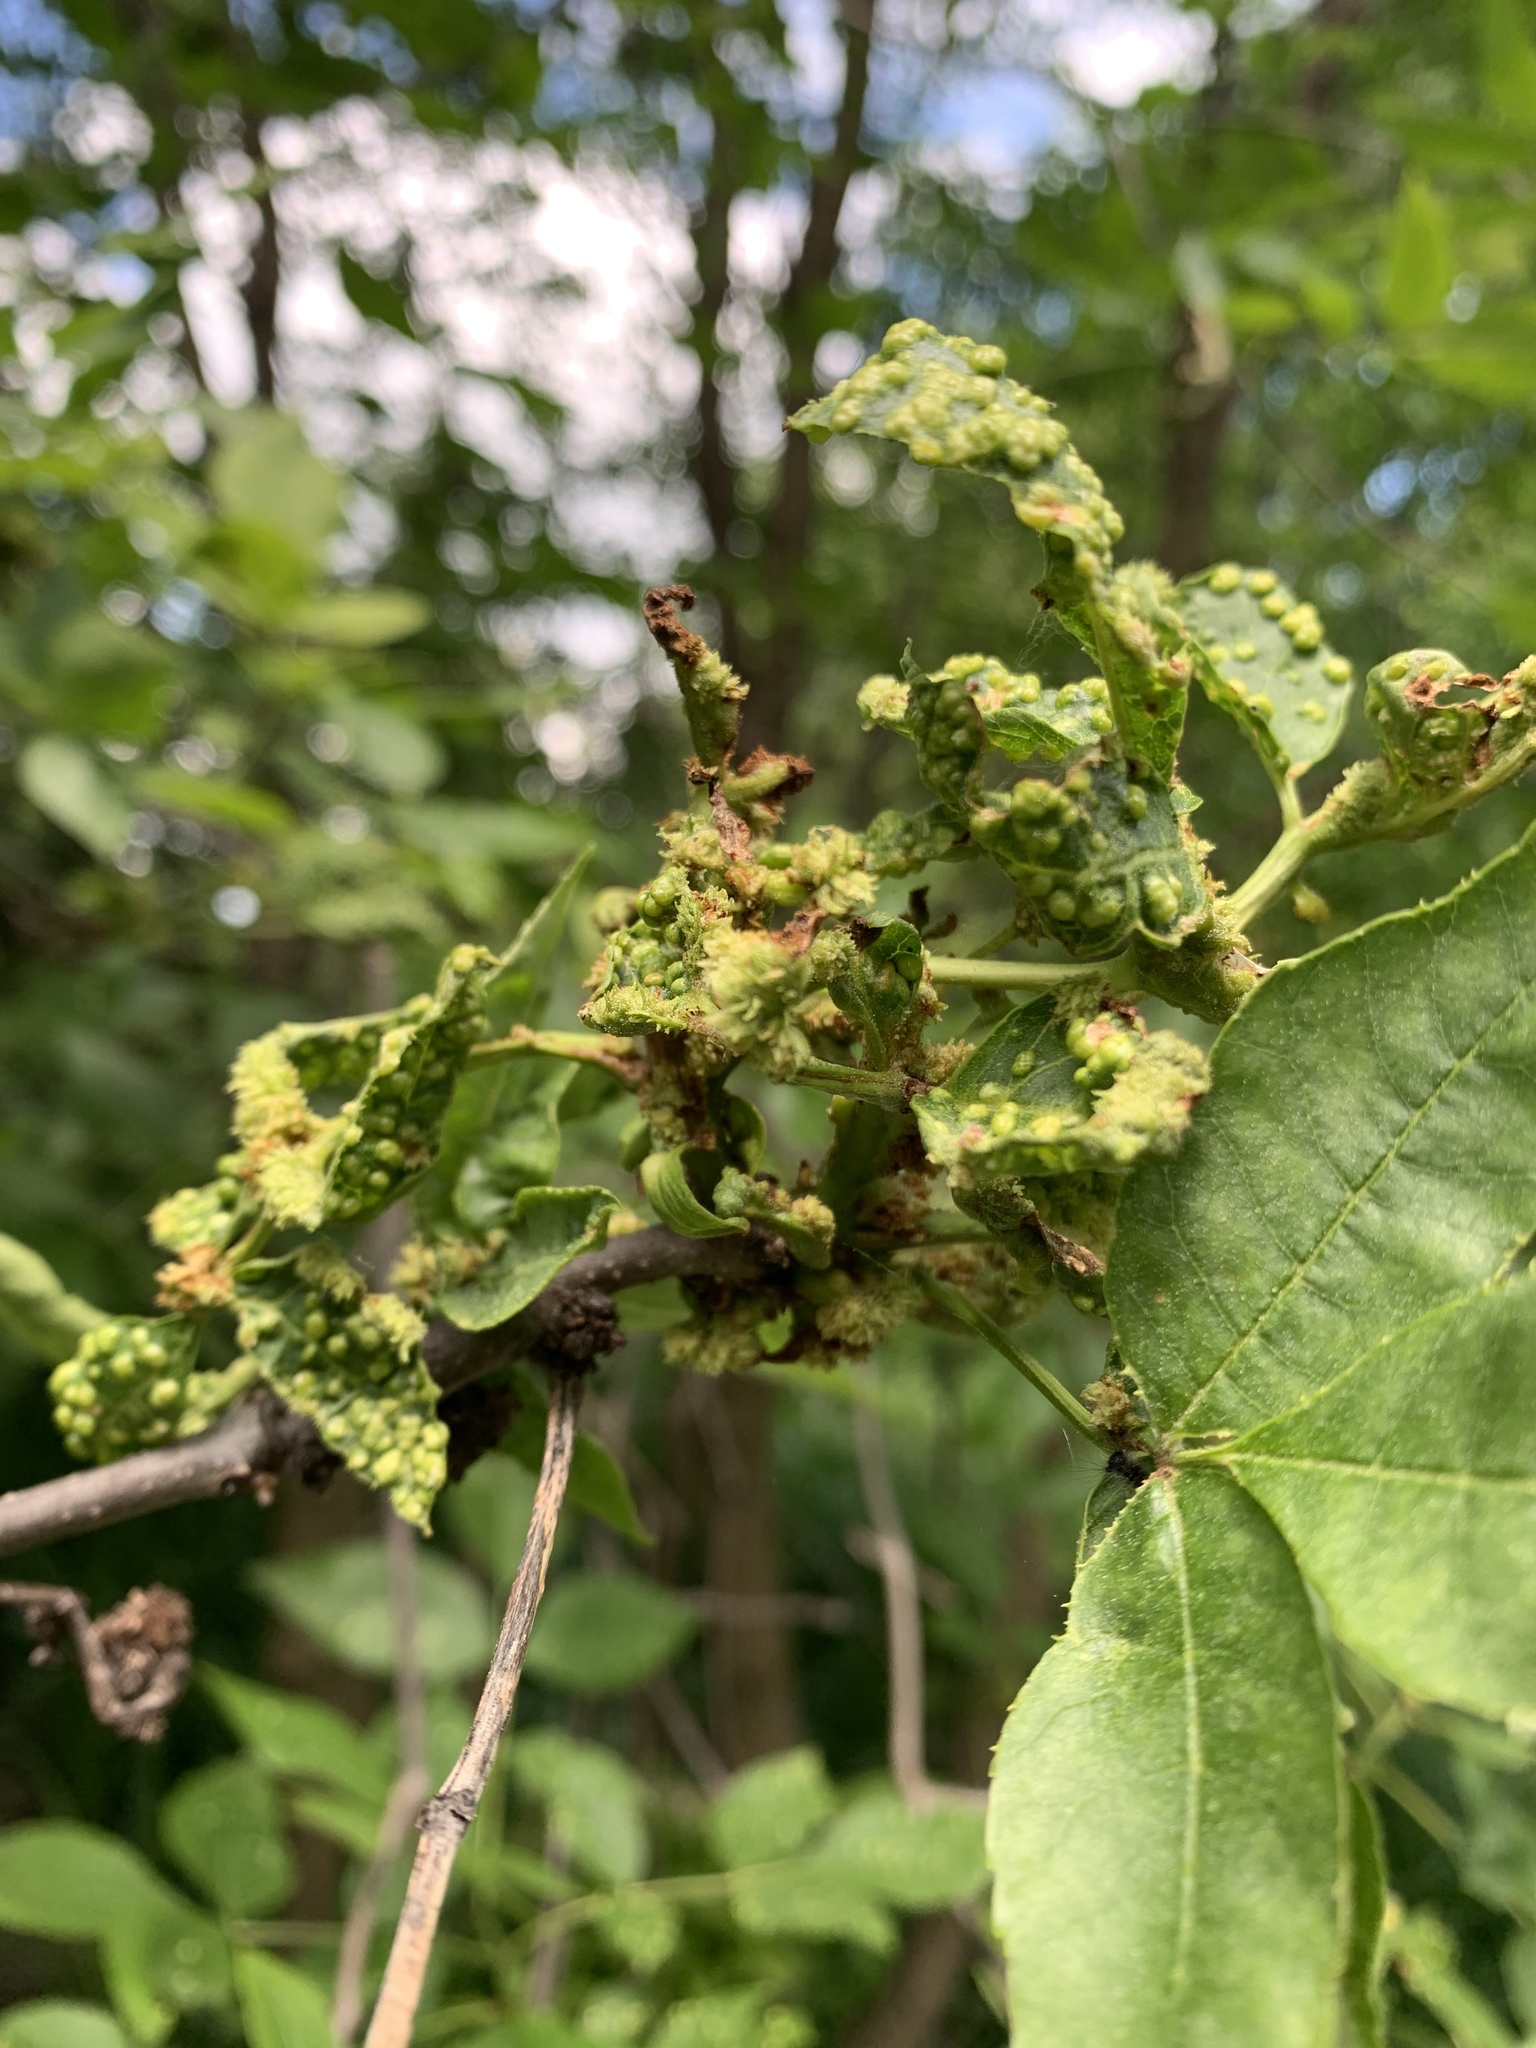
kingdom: Animalia
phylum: Arthropoda
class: Arachnida
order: Trombidiformes
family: Eriophyidae
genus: Aceria
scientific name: Aceria fraxinicola
